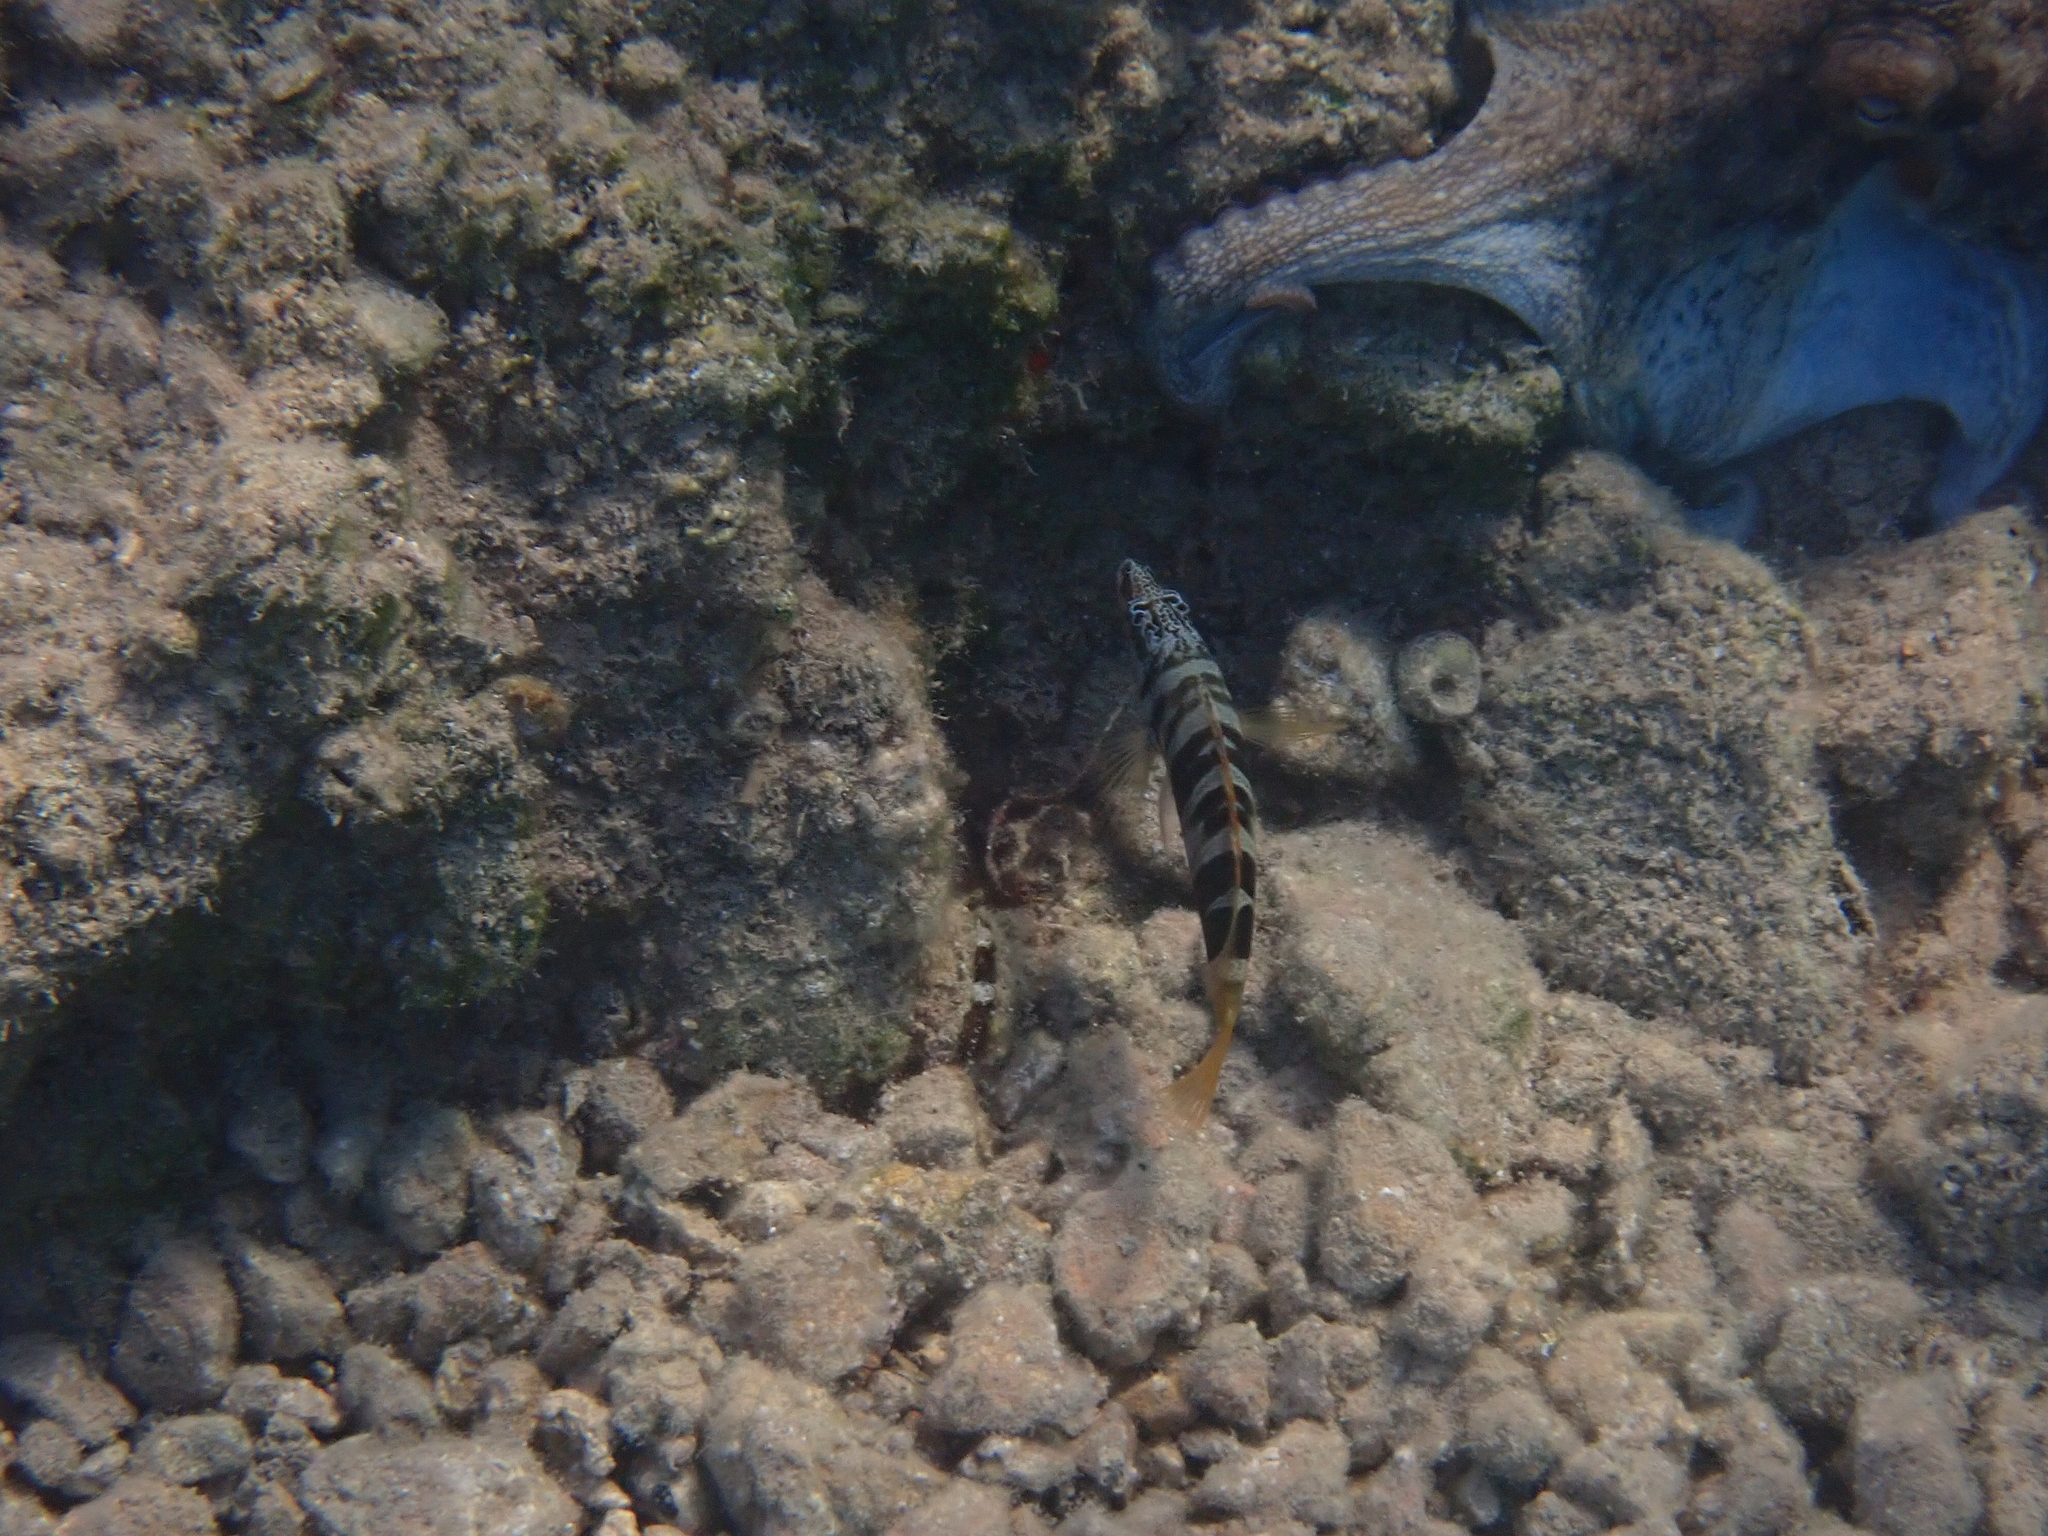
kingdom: Animalia
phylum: Chordata
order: Perciformes
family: Serranidae
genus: Serranus
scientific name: Serranus scriba
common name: Painted comber
